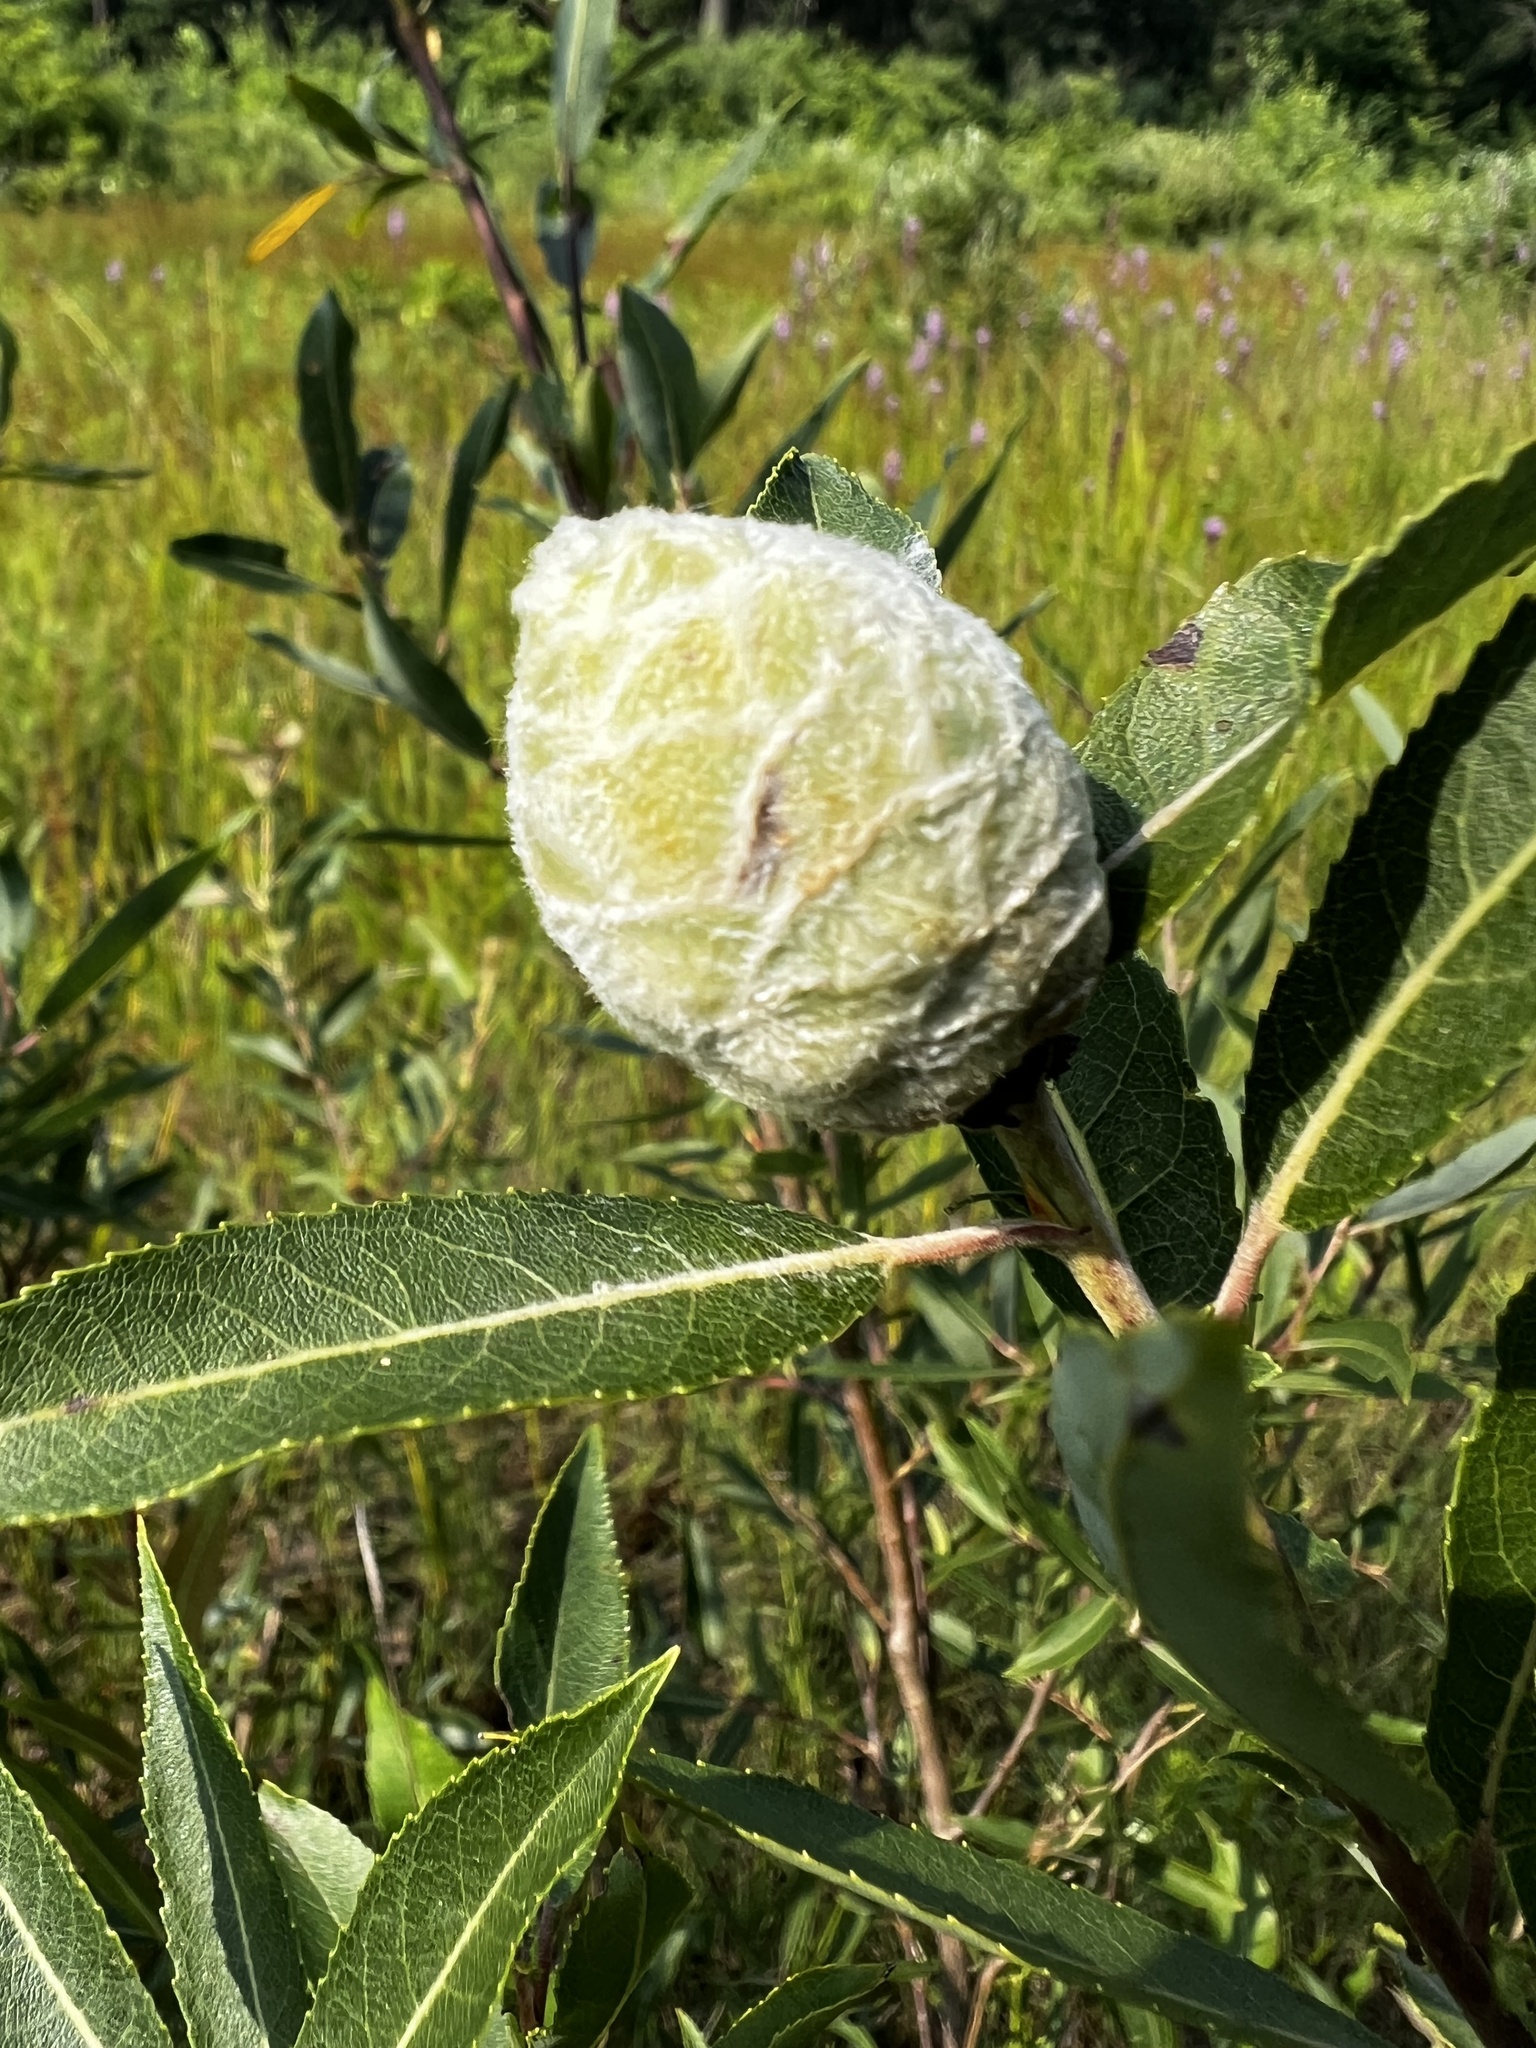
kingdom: Animalia
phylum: Arthropoda
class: Insecta
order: Diptera
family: Cecidomyiidae
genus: Rabdophaga
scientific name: Rabdophaga strobiloides
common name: Willow pinecone gall midge
